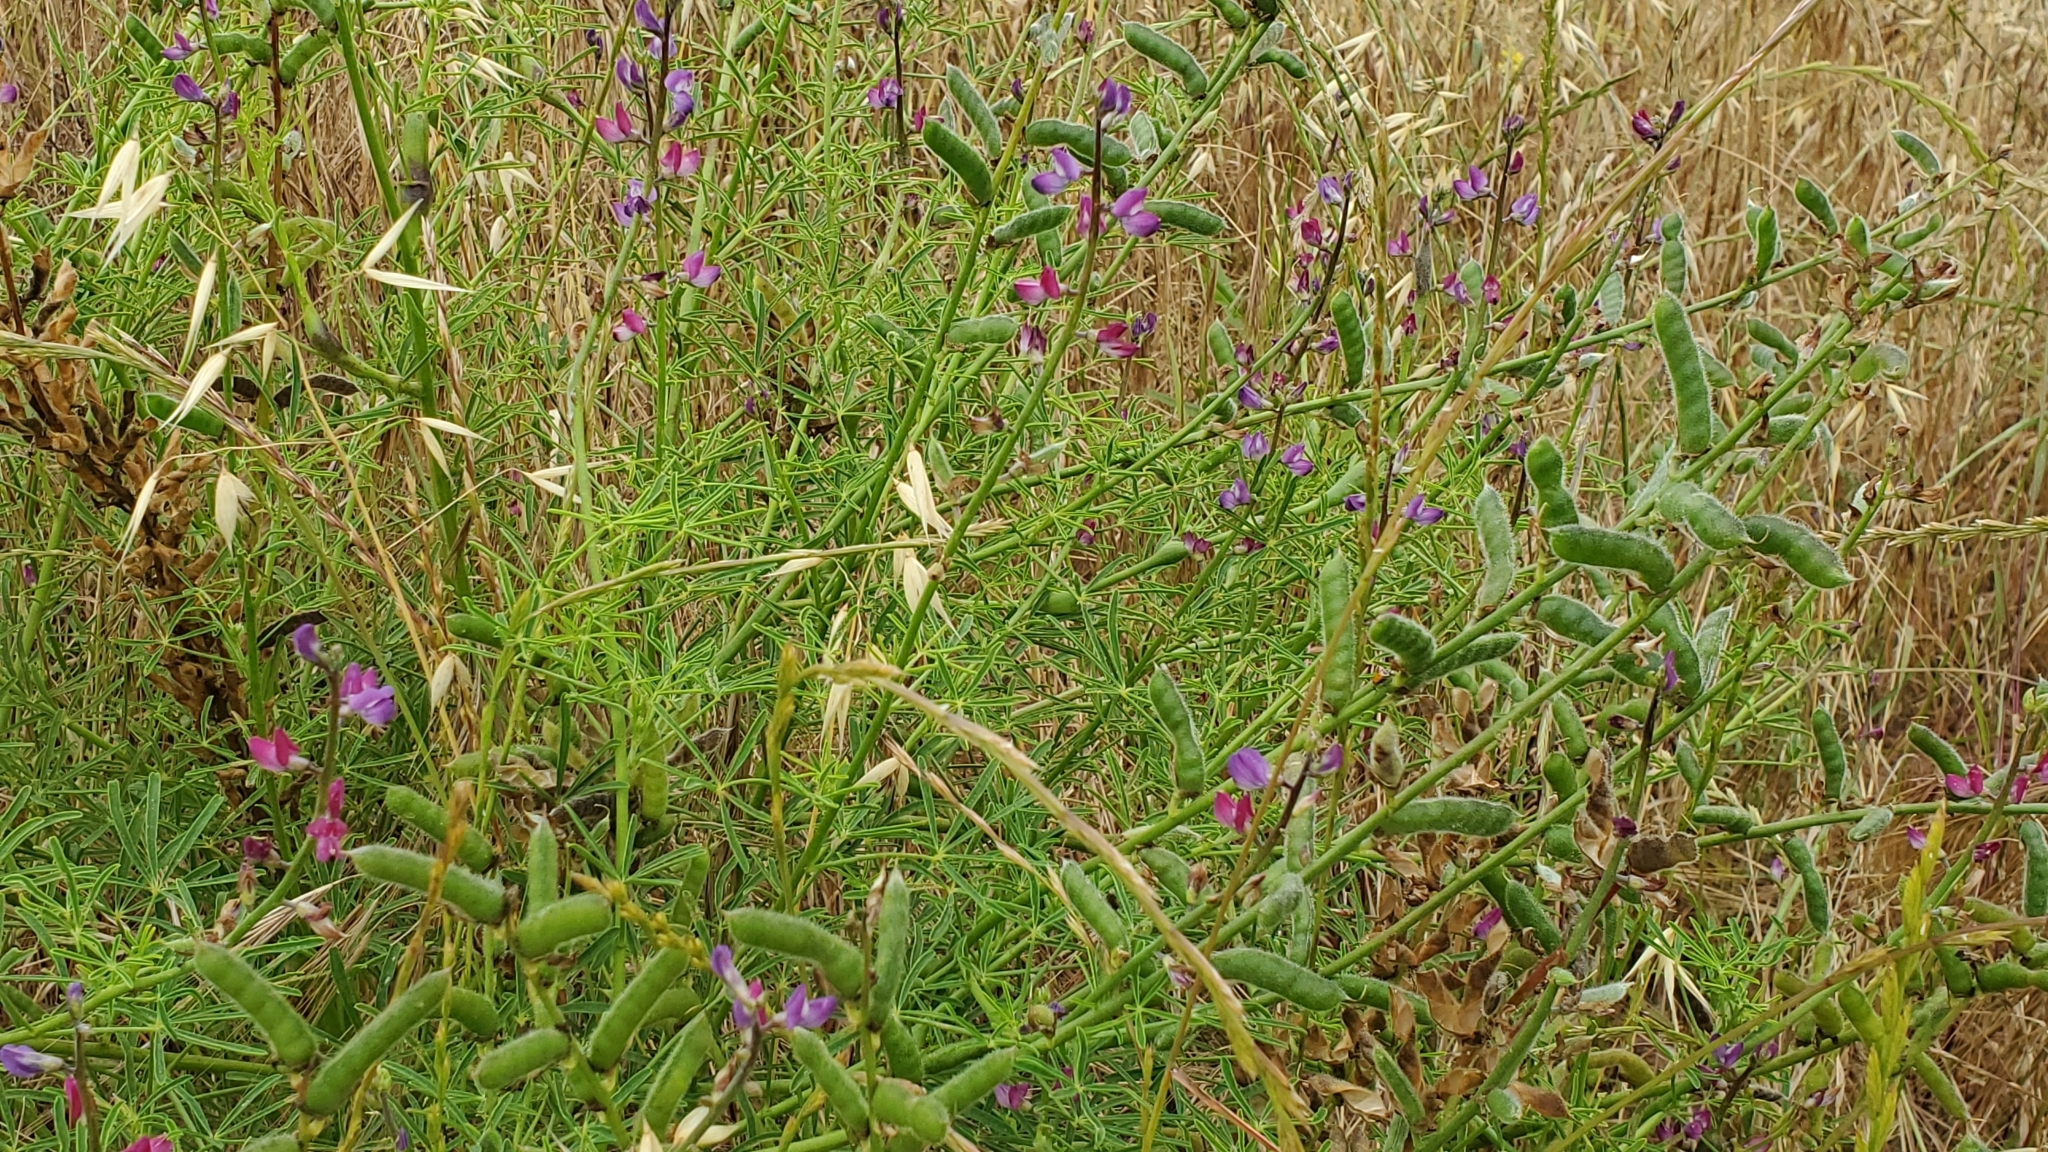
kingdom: Plantae
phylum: Tracheophyta
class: Magnoliopsida
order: Fabales
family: Fabaceae
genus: Lupinus
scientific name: Lupinus truncatus
